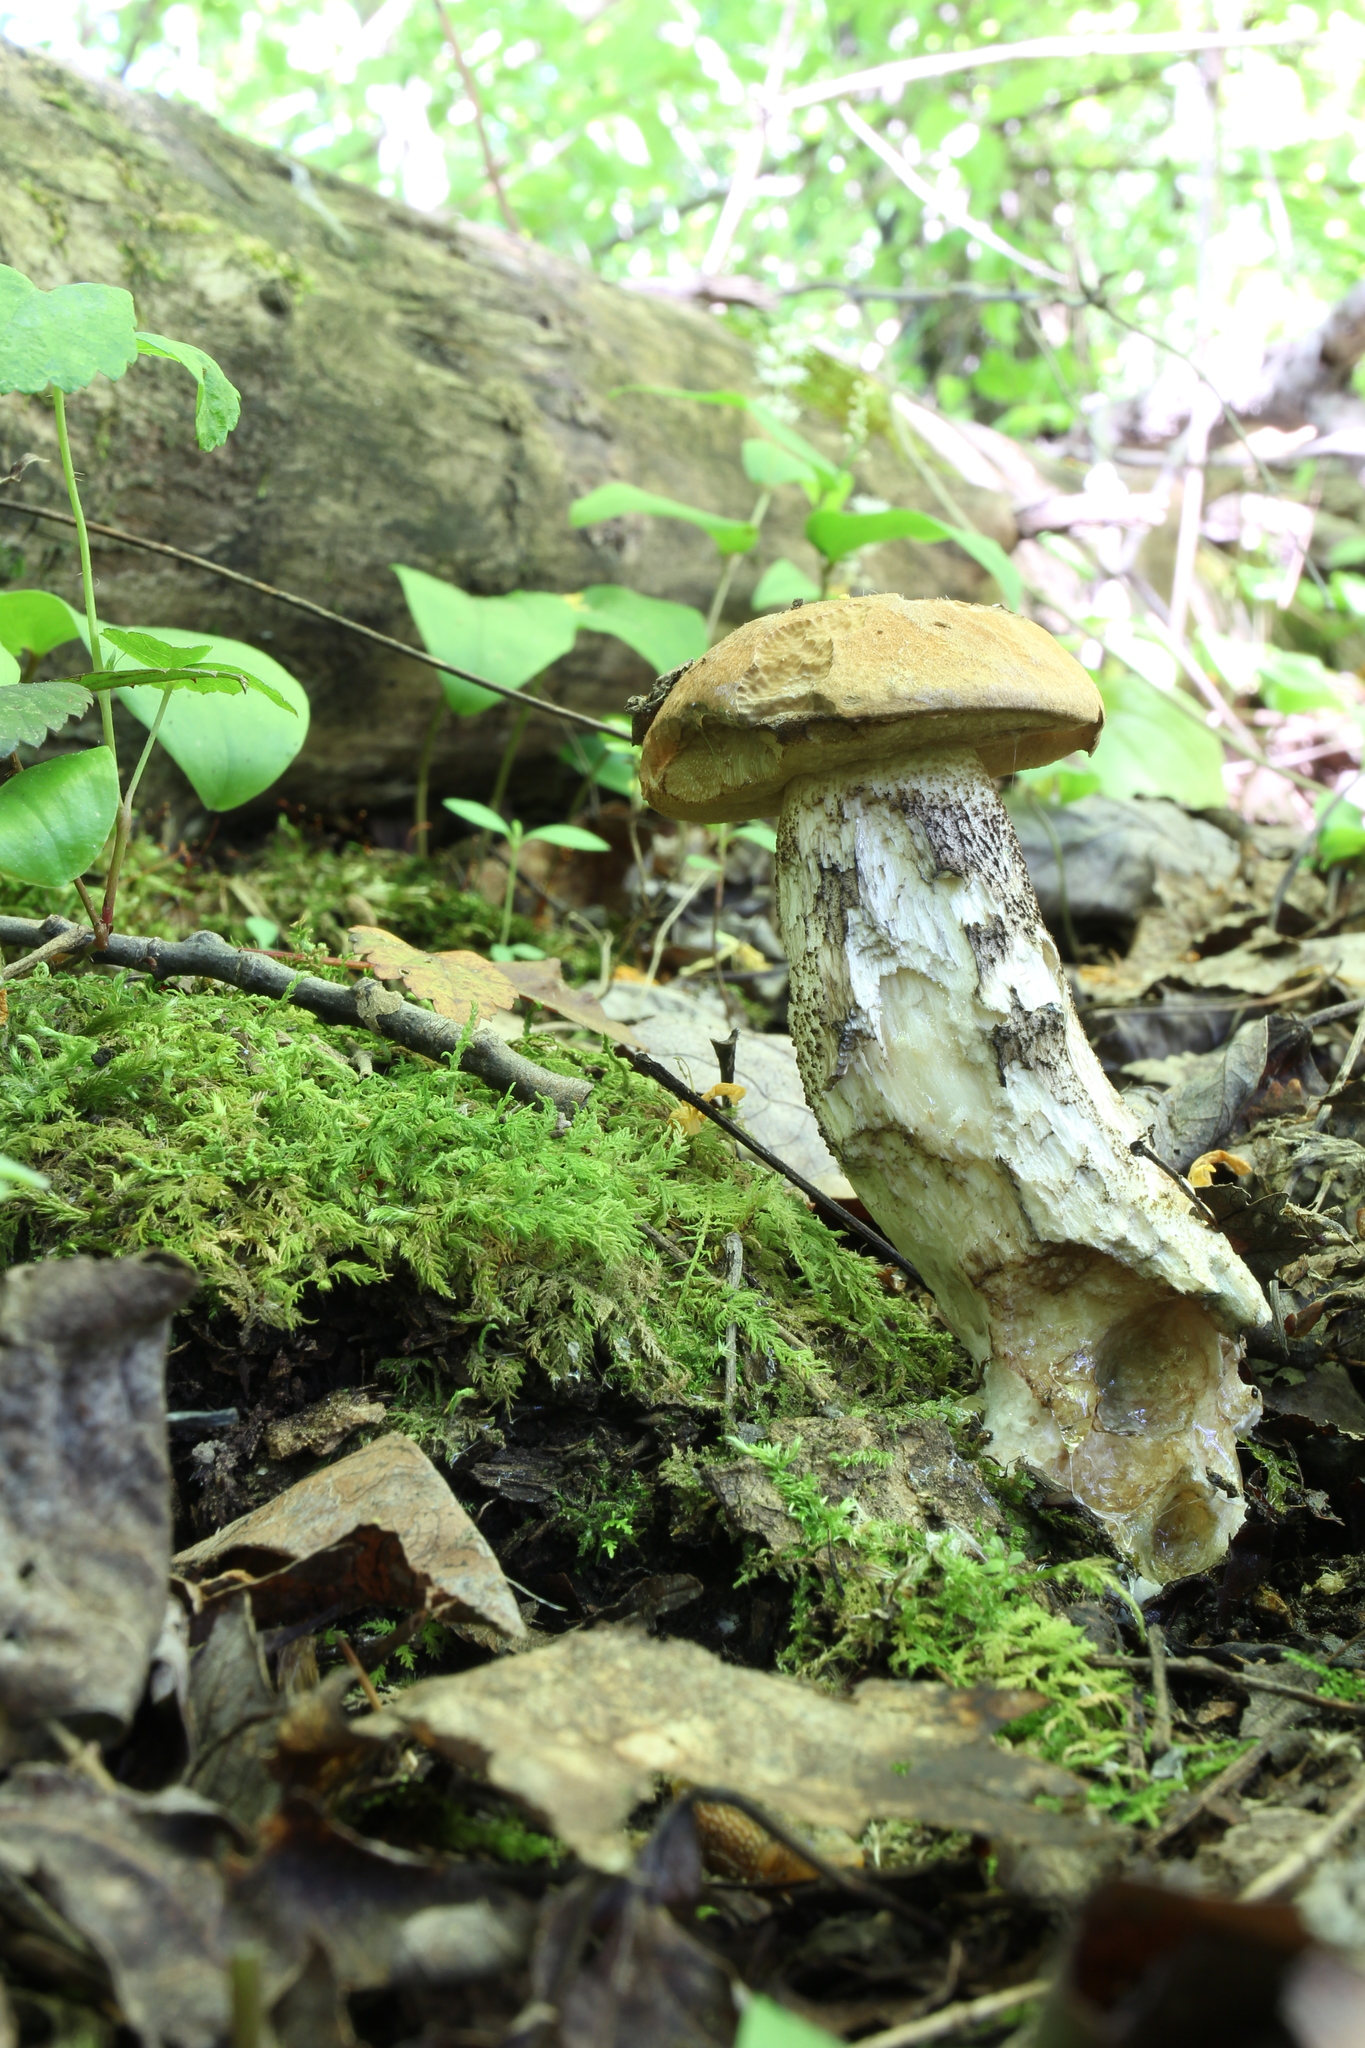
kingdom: Fungi
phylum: Basidiomycota
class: Agaricomycetes
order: Boletales
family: Boletaceae
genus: Leccinum
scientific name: Leccinum insigne
